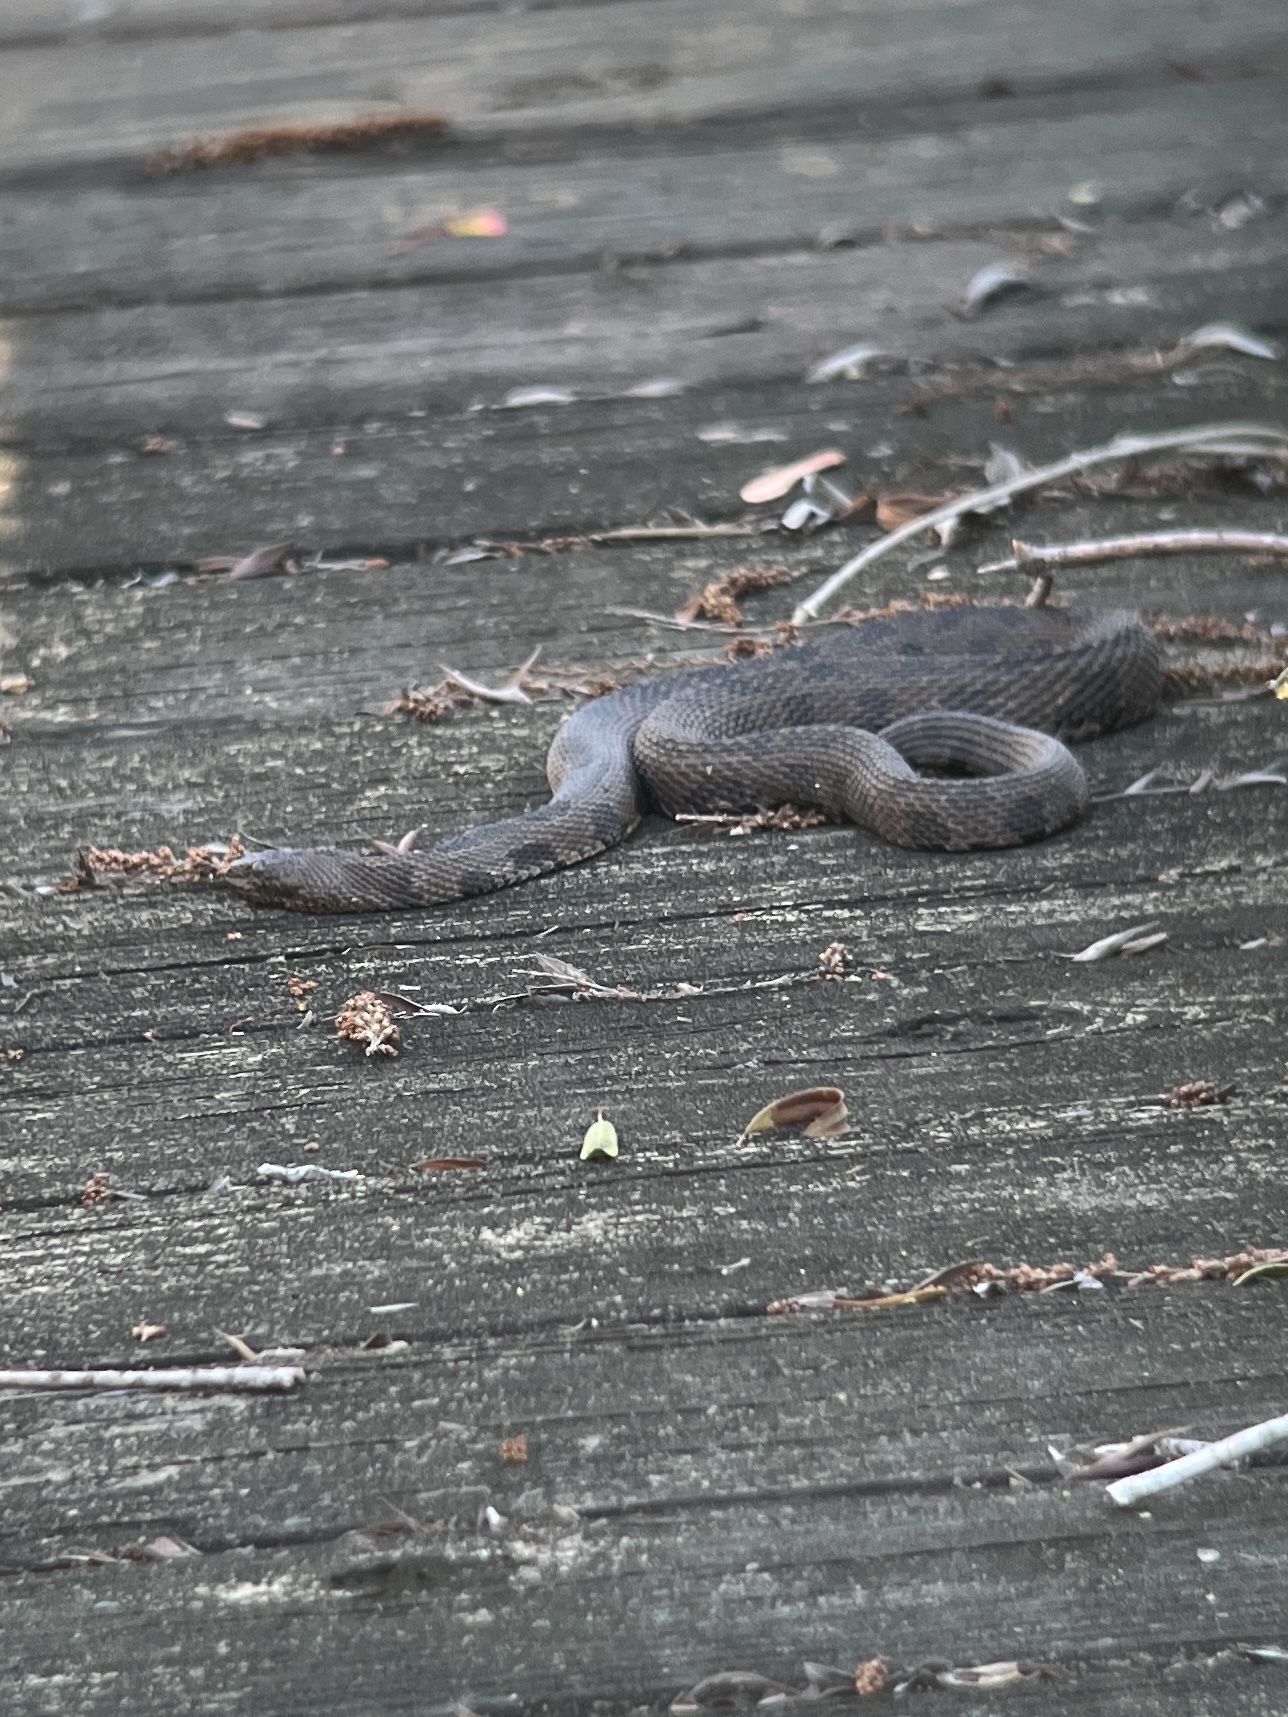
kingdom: Animalia
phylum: Chordata
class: Squamata
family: Colubridae
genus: Nerodia
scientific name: Nerodia taxispilota
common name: Brown water snake
